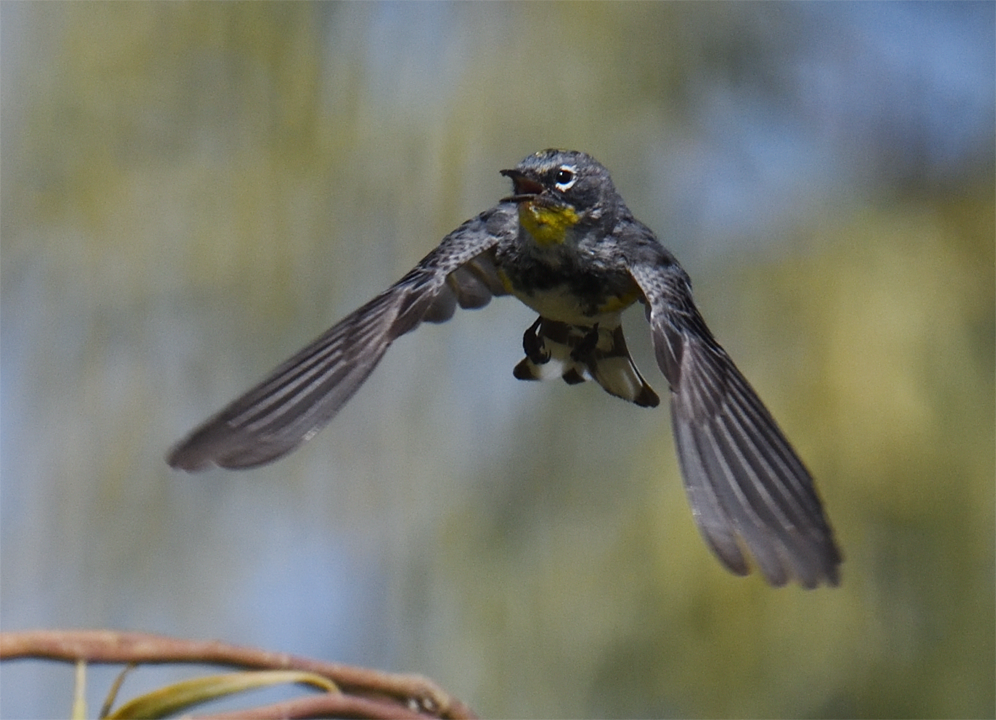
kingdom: Animalia
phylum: Chordata
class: Aves
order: Passeriformes
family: Parulidae
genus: Setophaga
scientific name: Setophaga auduboni
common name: Audubon's warbler
